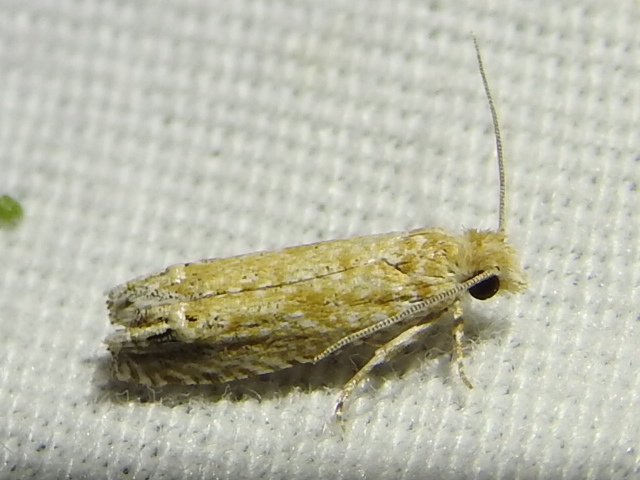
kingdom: Animalia
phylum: Arthropoda
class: Insecta
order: Lepidoptera
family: Tortricidae
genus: Pelochrista
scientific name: Pelochrista comatulana
